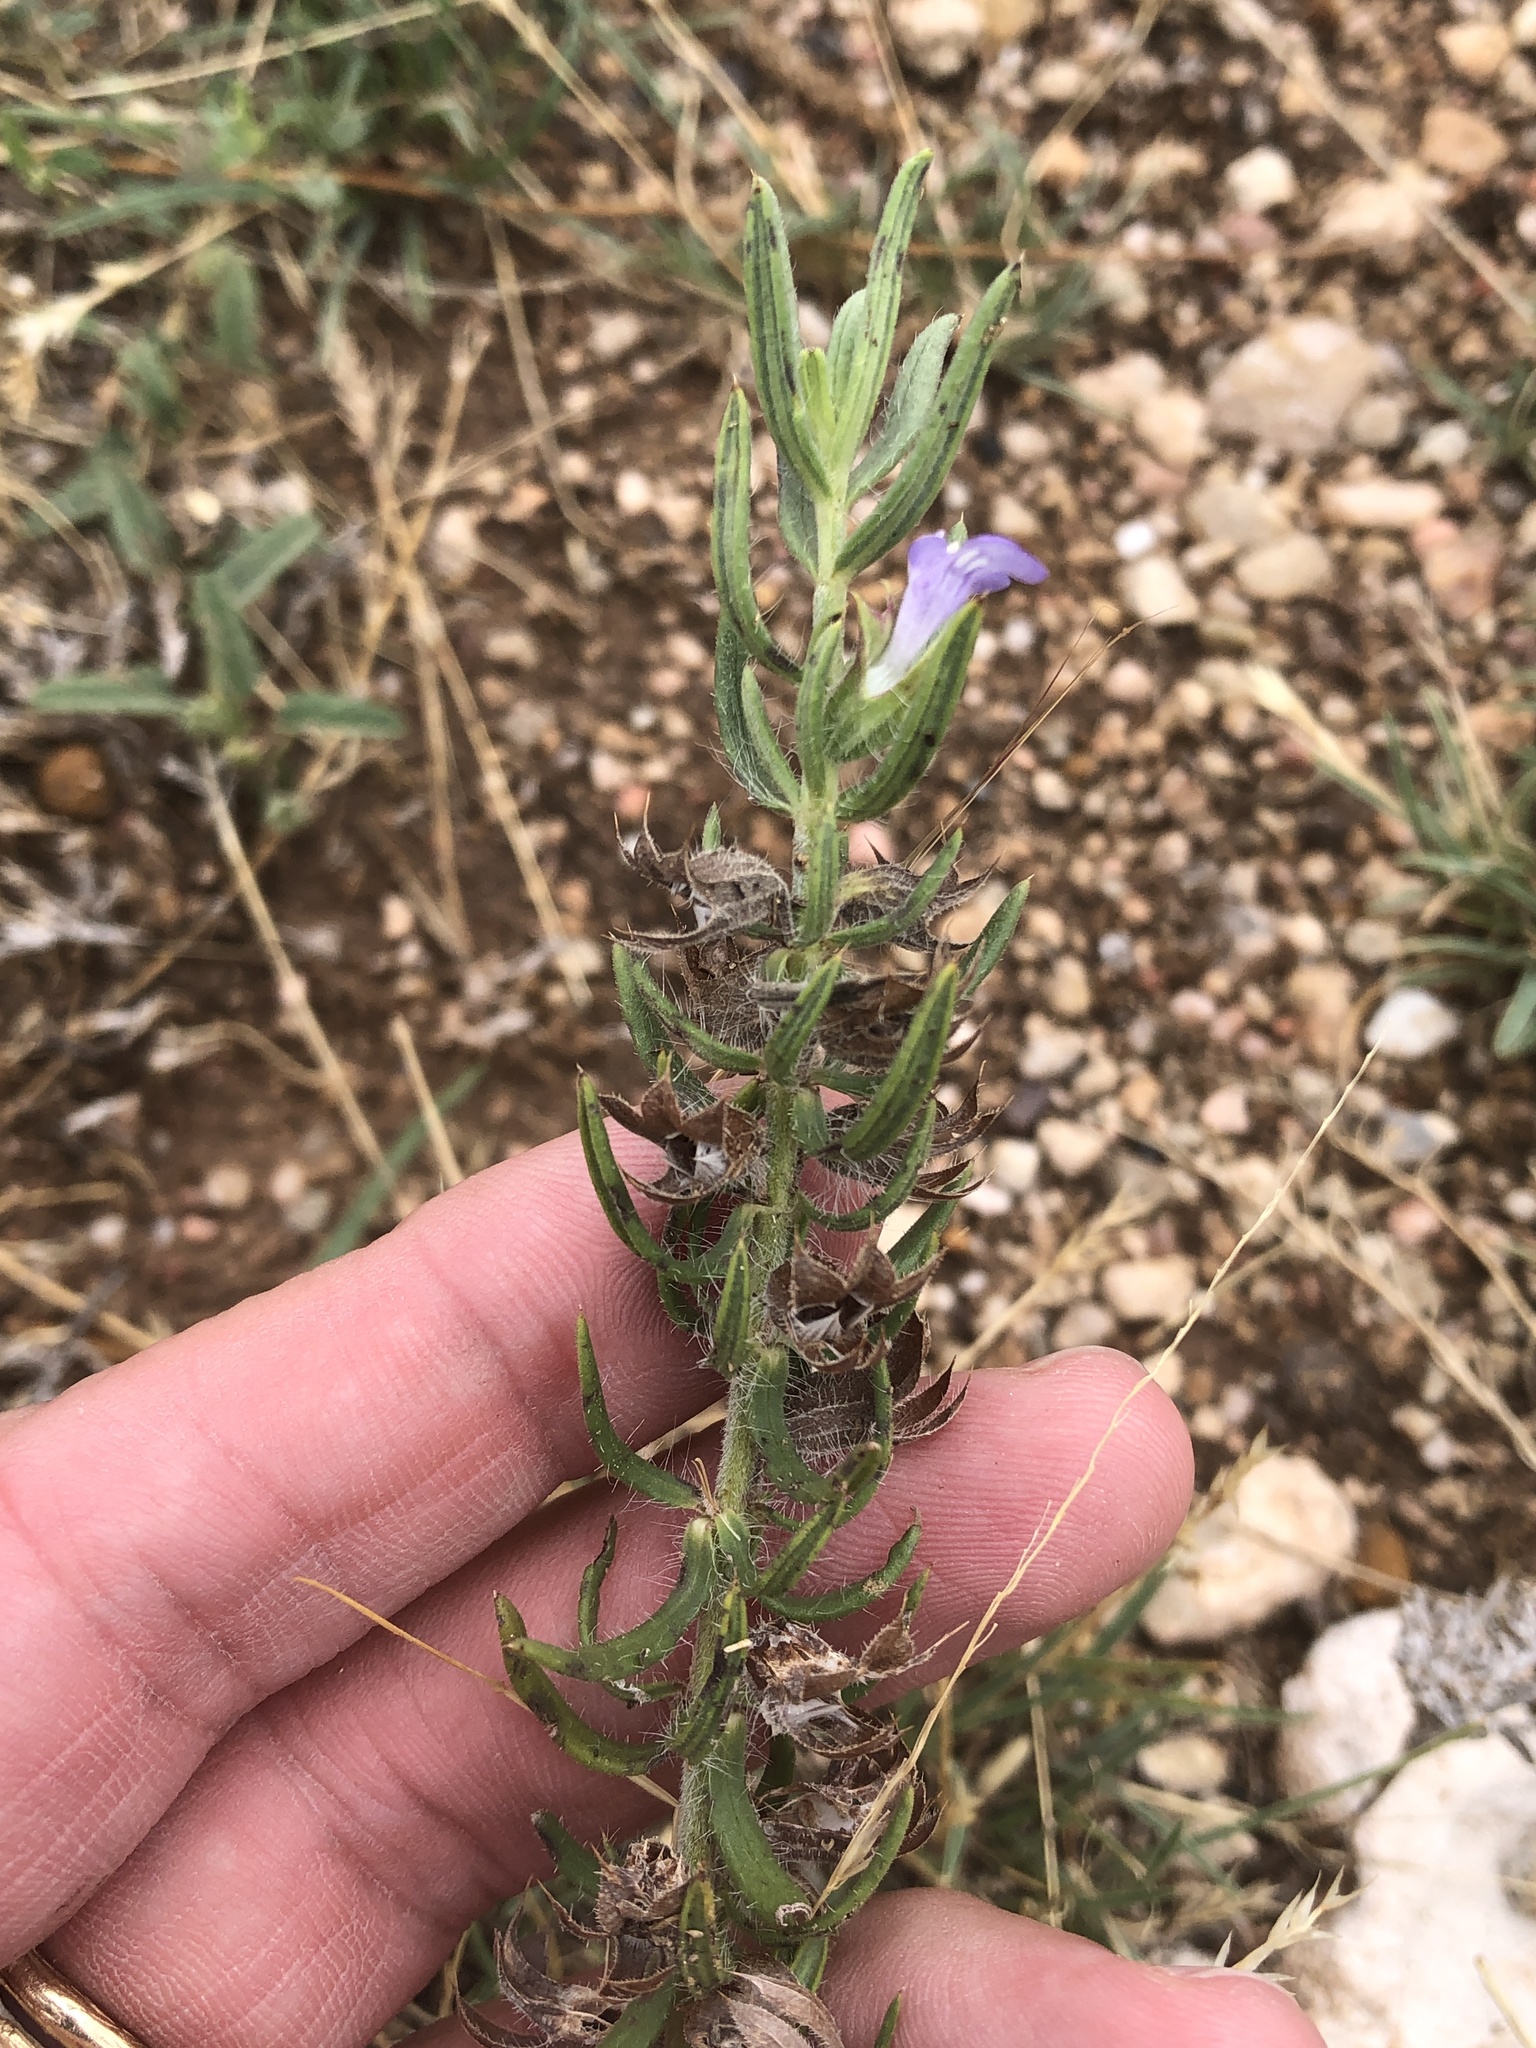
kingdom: Plantae
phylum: Tracheophyta
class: Magnoliopsida
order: Lamiales
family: Lamiaceae
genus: Salvia
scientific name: Salvia texana
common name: Texas sage
